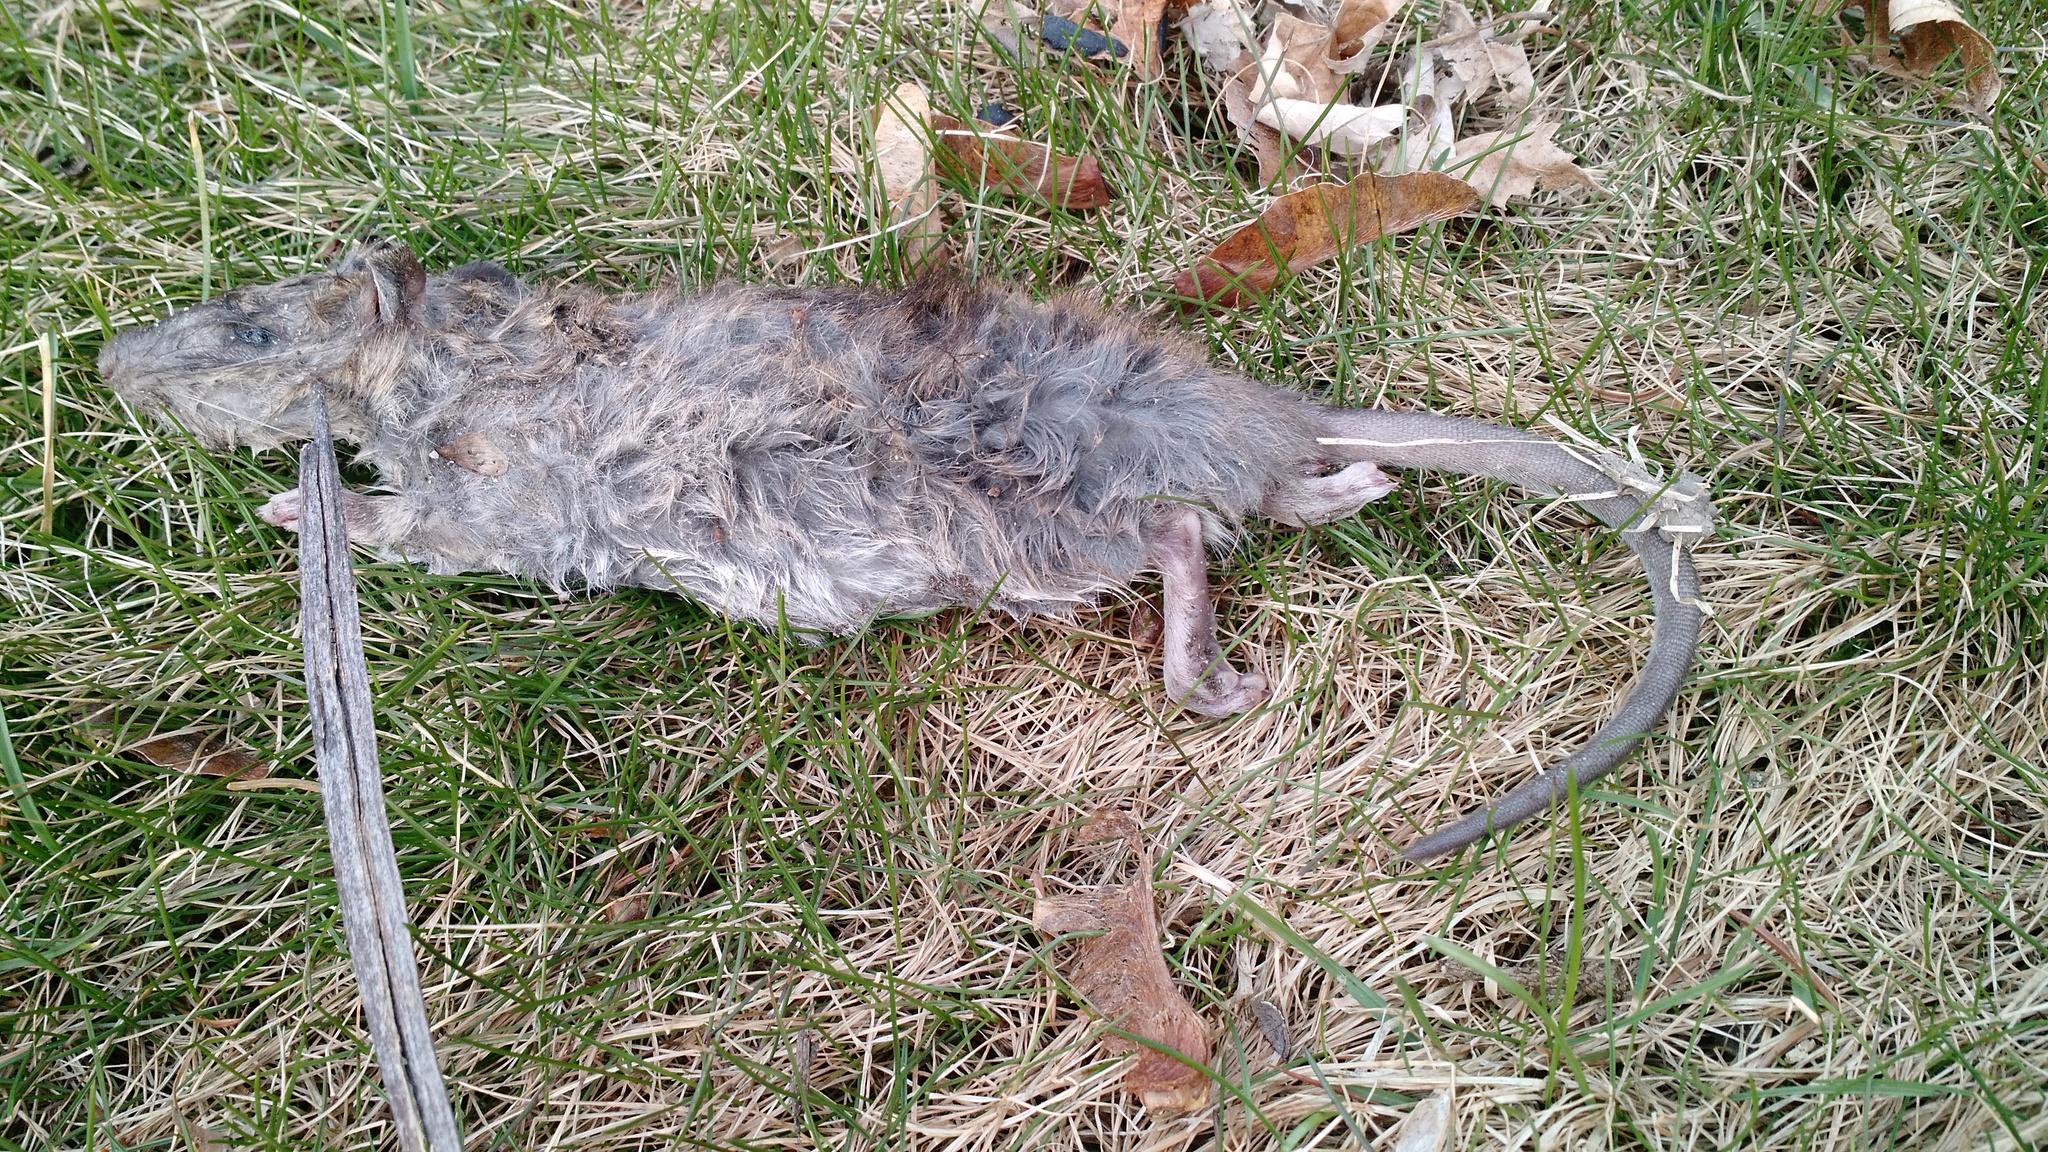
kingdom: Animalia
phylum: Chordata
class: Mammalia
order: Rodentia
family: Muridae
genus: Rattus
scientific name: Rattus norvegicus
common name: Brown rat
